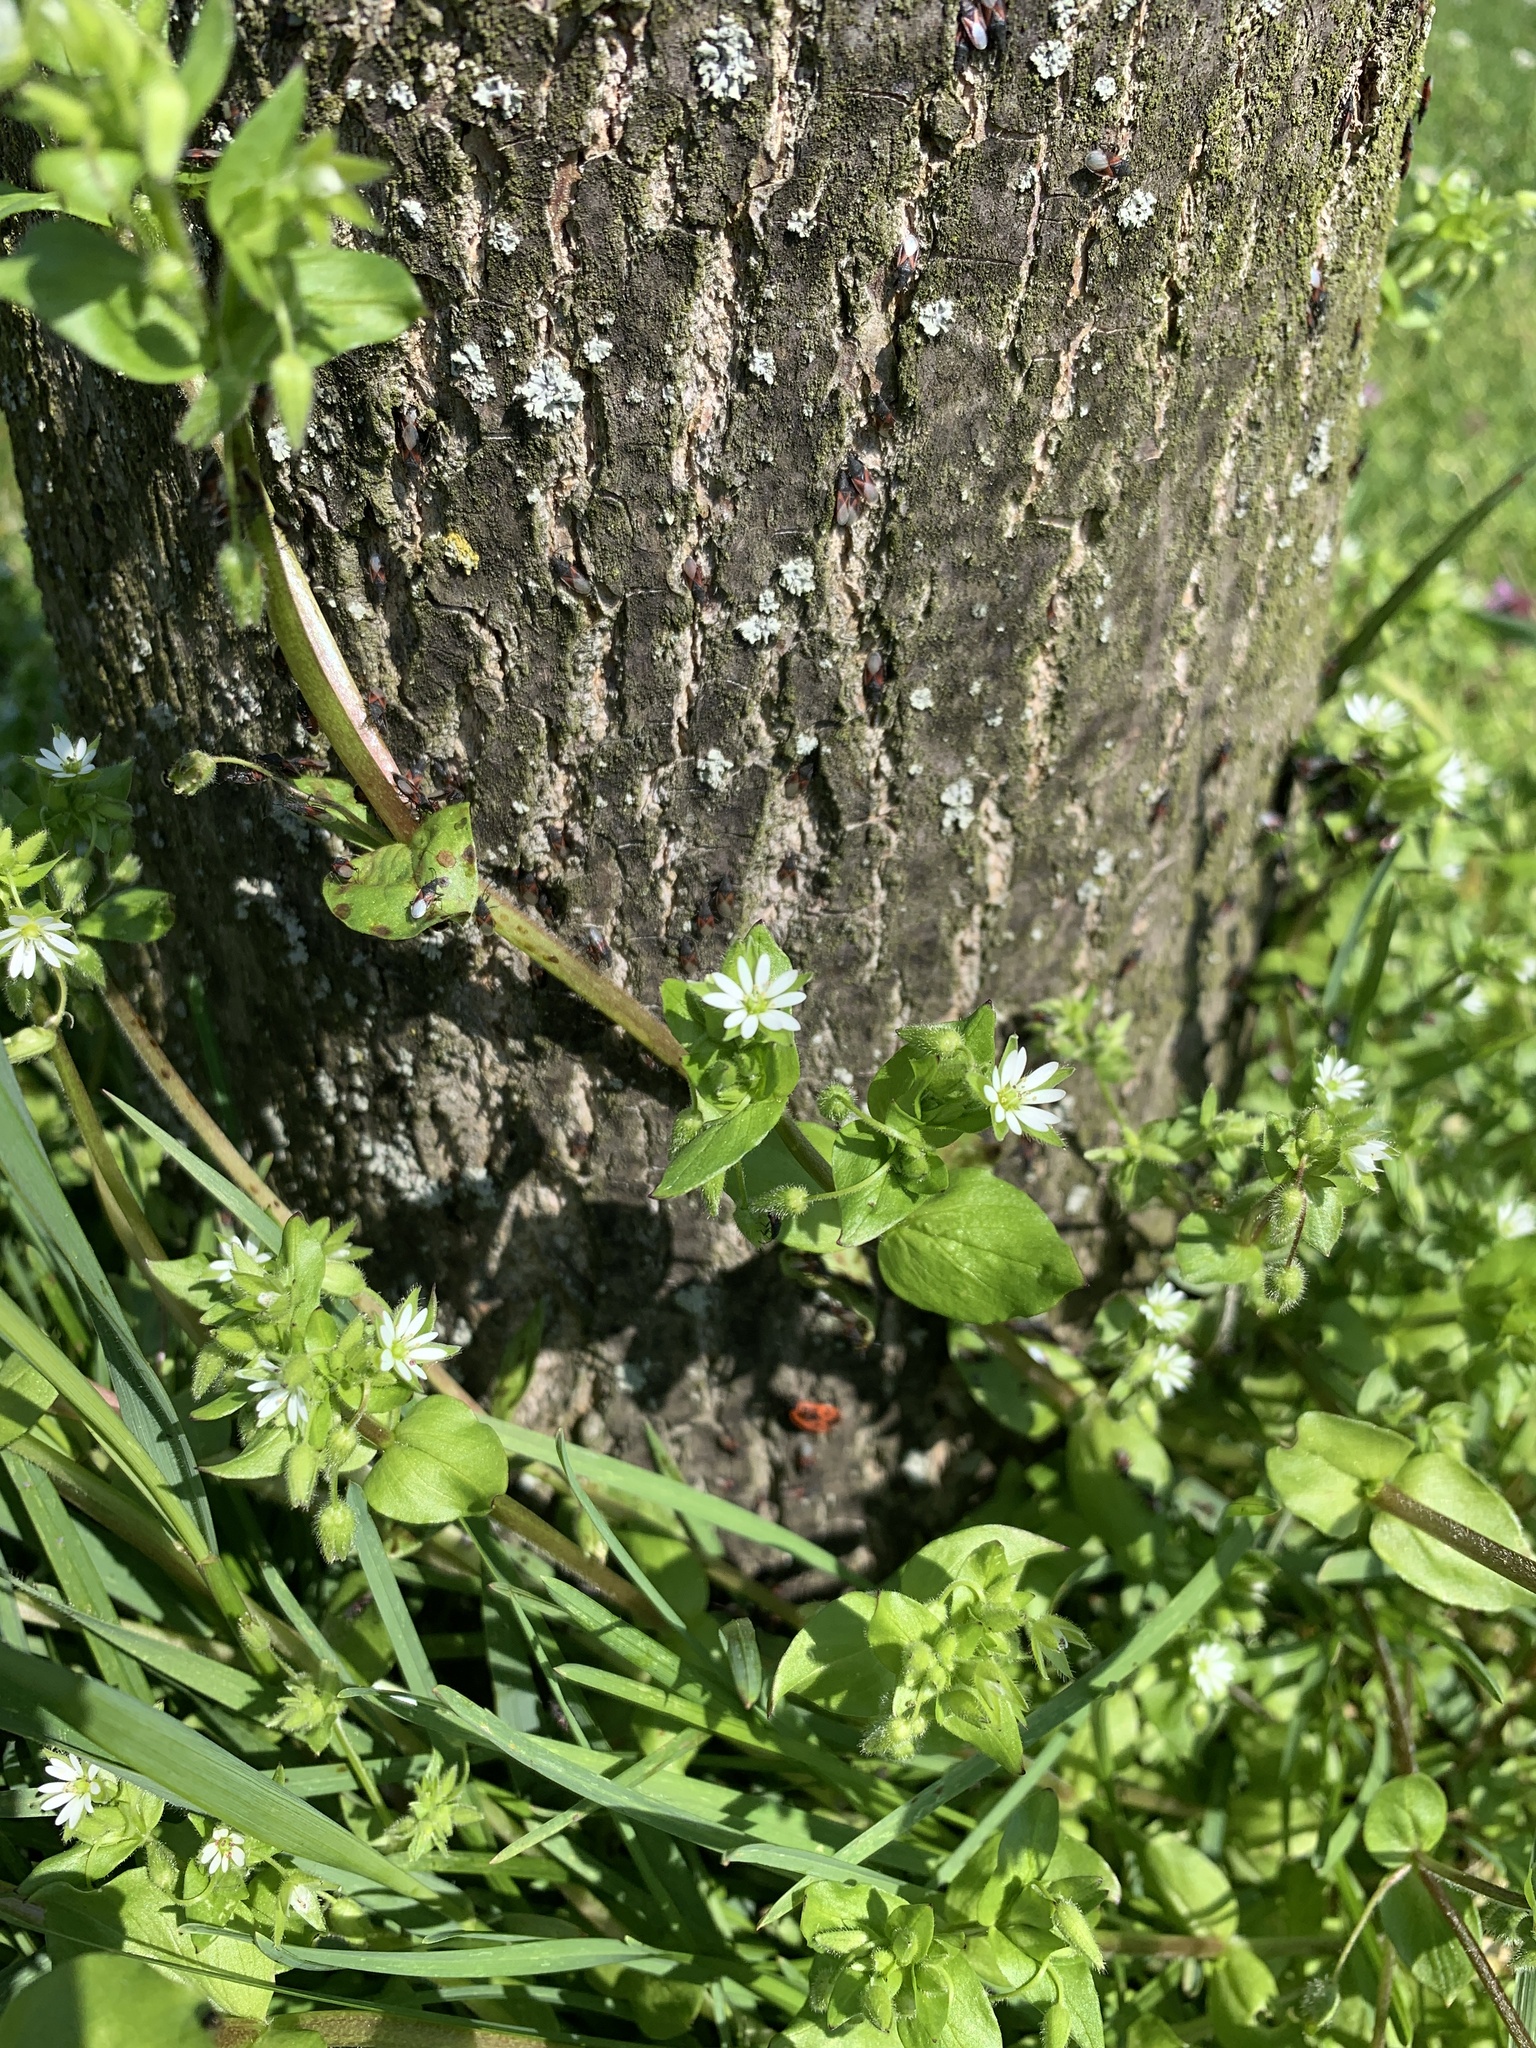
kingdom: Plantae
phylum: Tracheophyta
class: Magnoliopsida
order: Caryophyllales
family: Caryophyllaceae
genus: Stellaria
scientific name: Stellaria media
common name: Common chickweed
